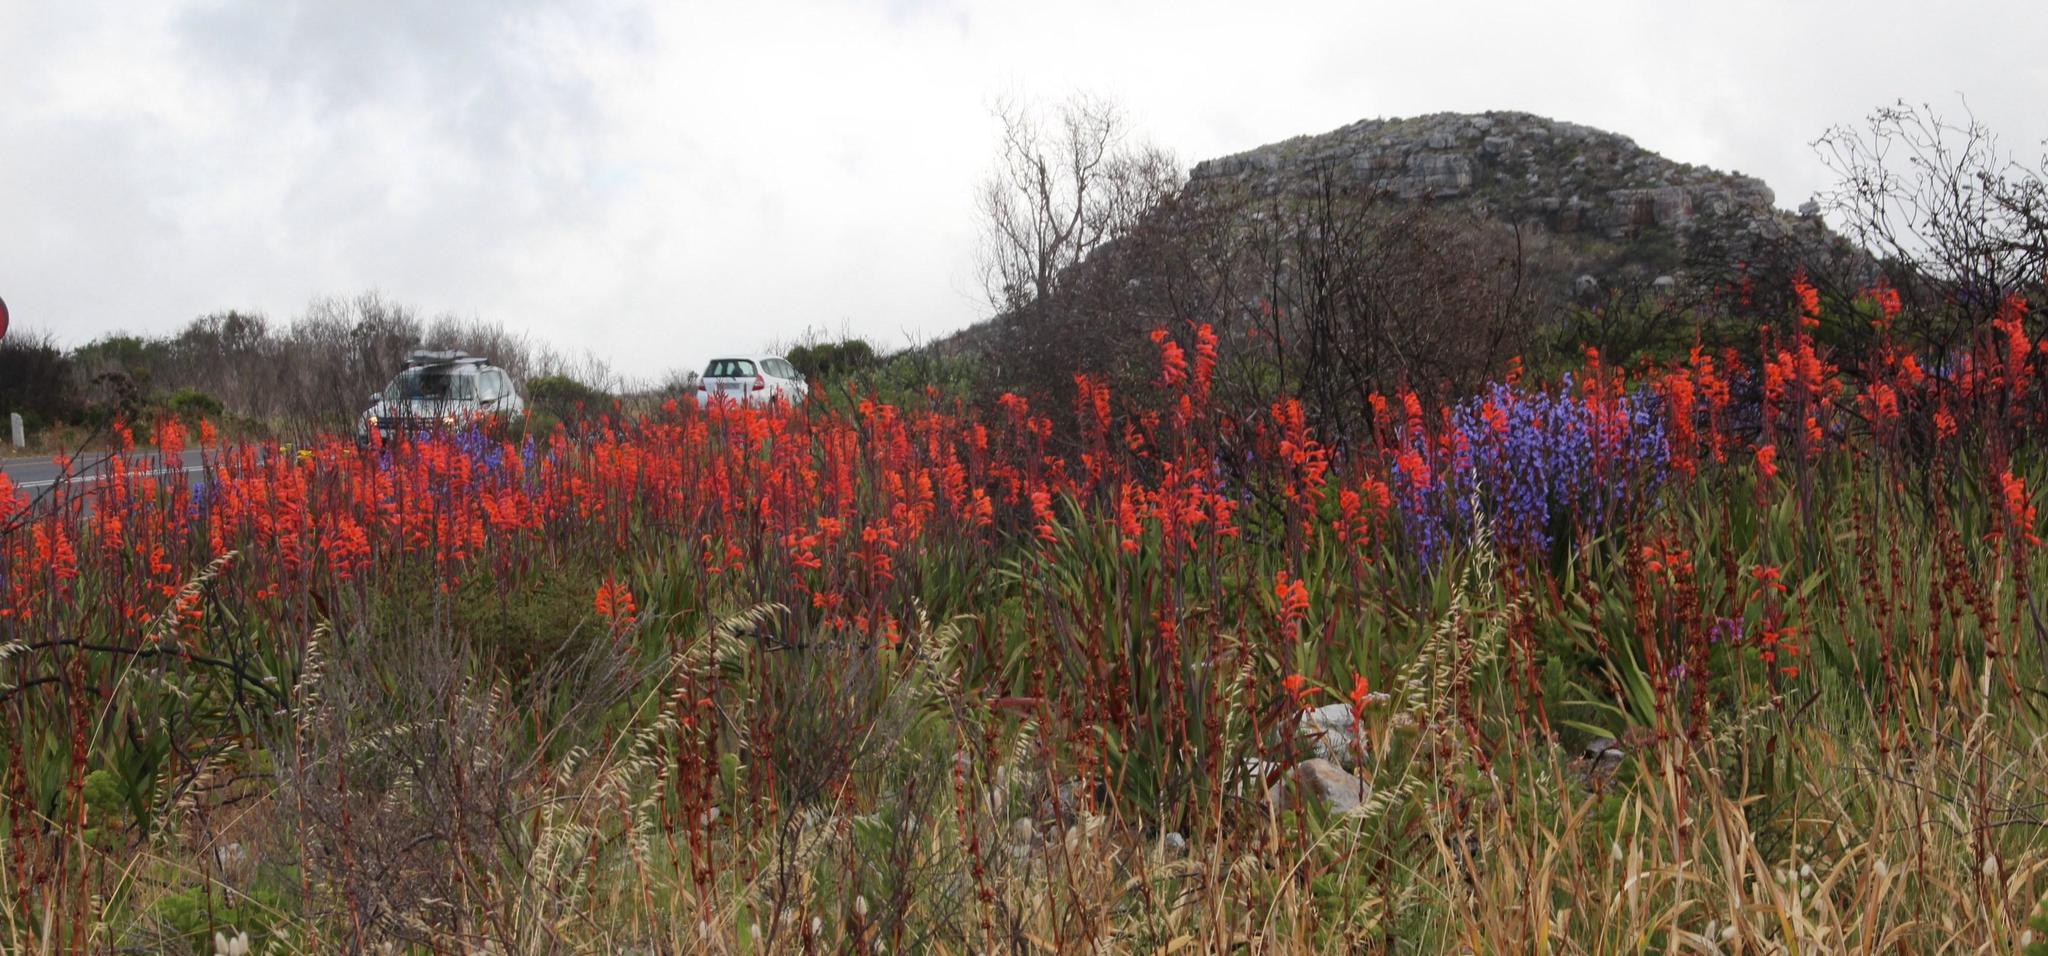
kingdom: Plantae
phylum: Tracheophyta
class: Liliopsida
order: Asparagales
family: Iridaceae
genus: Watsonia
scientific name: Watsonia tabularis
